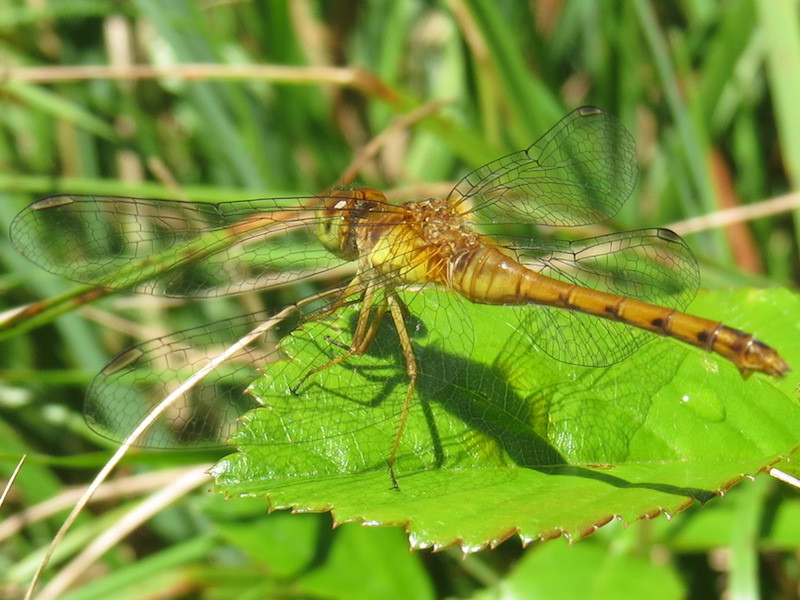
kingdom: Animalia
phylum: Arthropoda
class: Insecta
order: Odonata
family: Libellulidae
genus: Sympetrum
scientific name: Sympetrum vicinum
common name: Autumn meadowhawk
